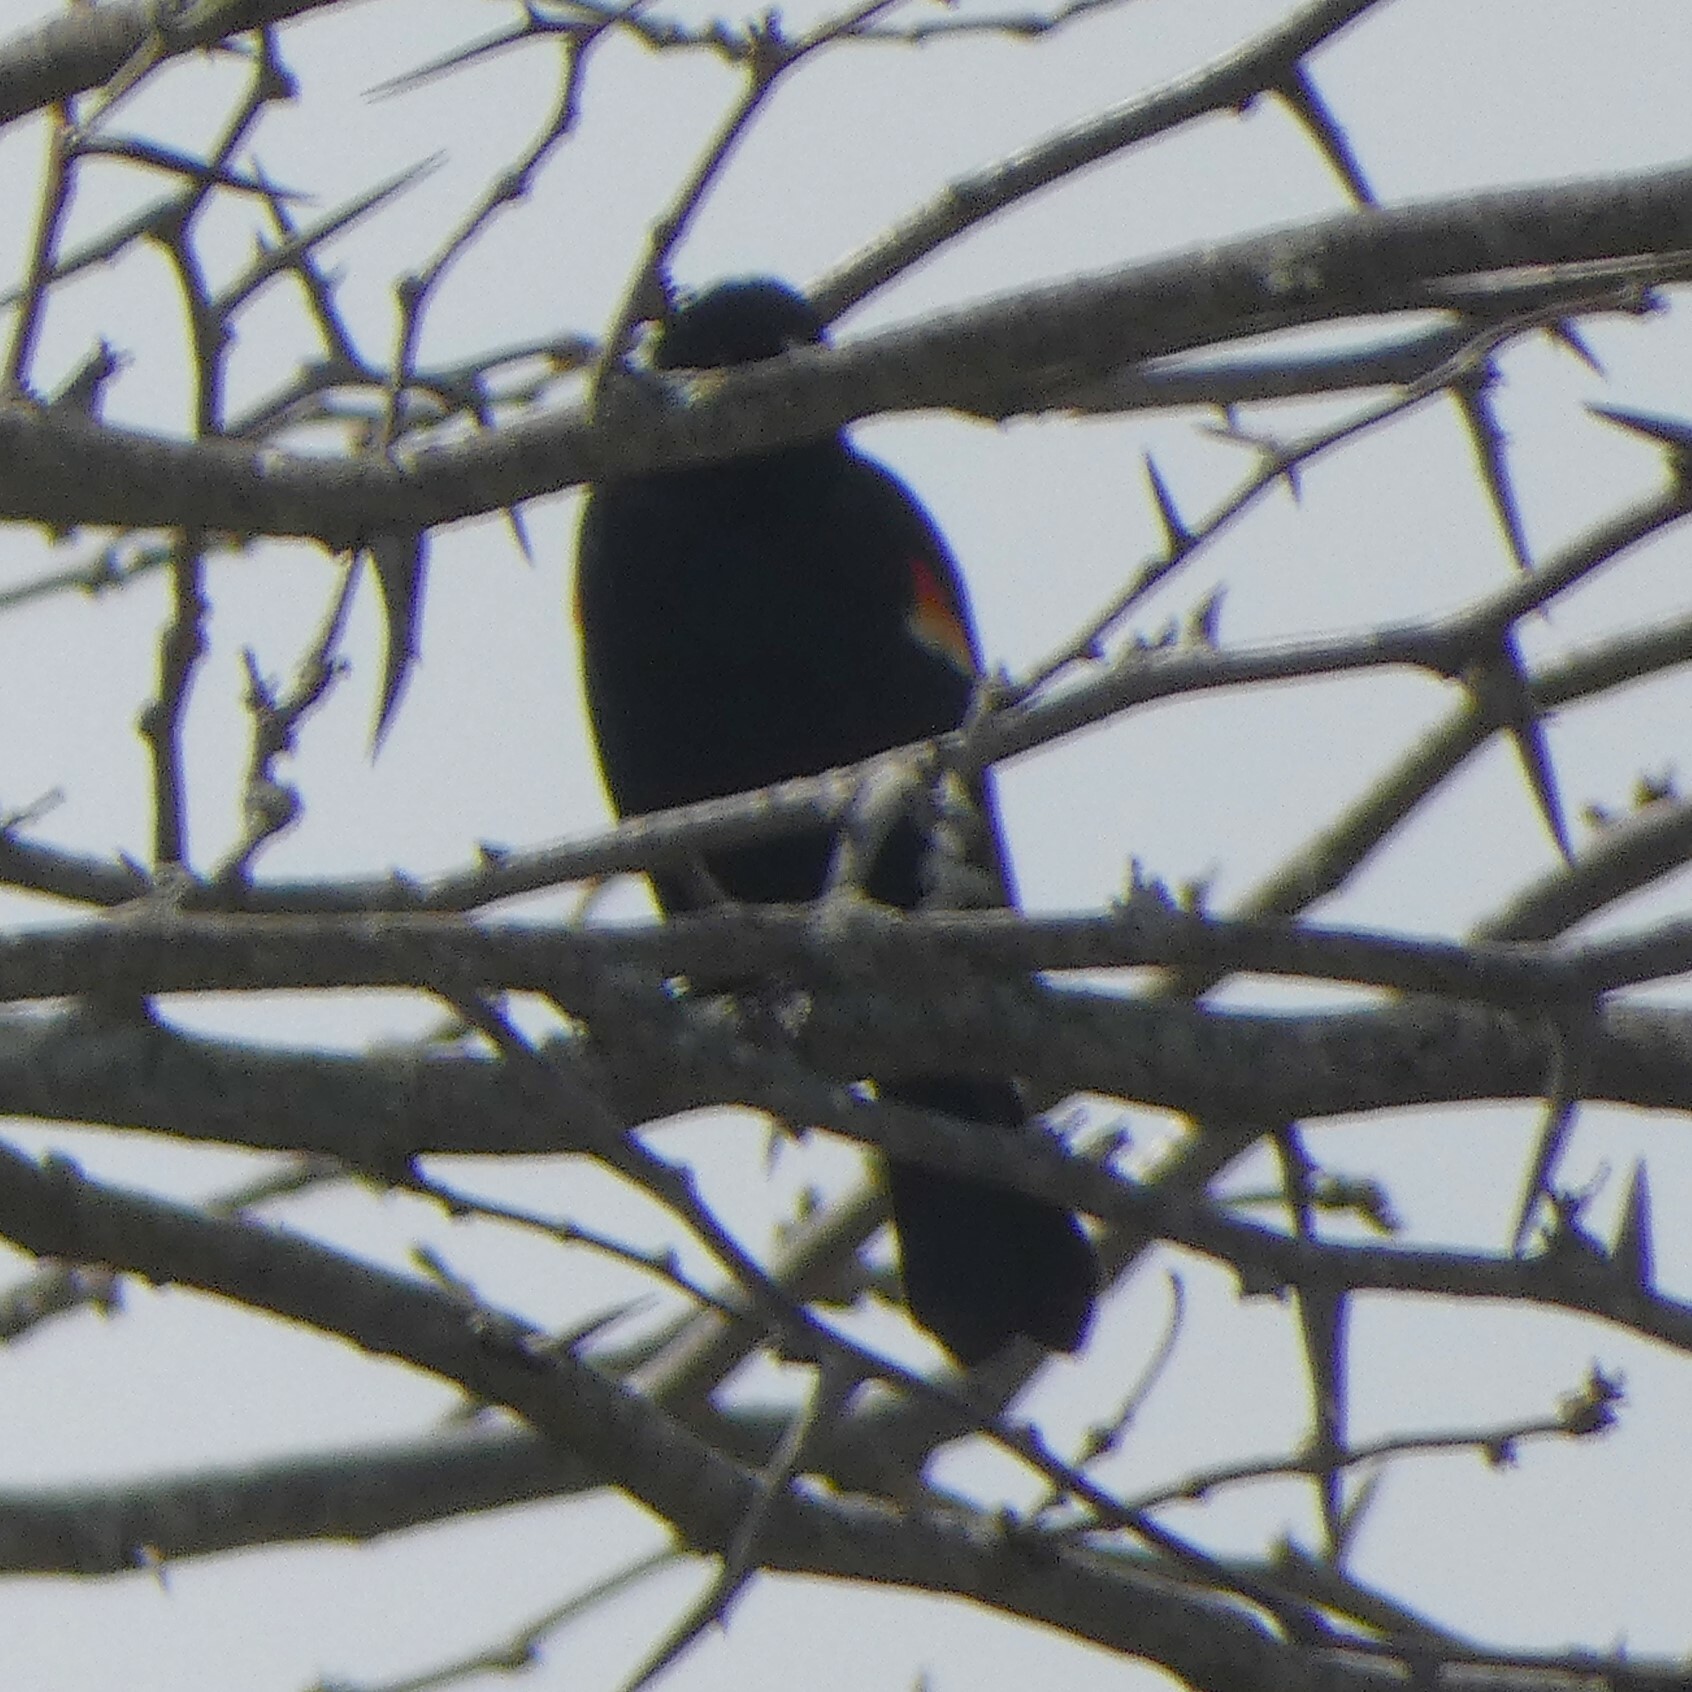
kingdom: Animalia
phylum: Chordata
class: Aves
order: Passeriformes
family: Icteridae
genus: Agelaius
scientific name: Agelaius phoeniceus
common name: Red-winged blackbird
